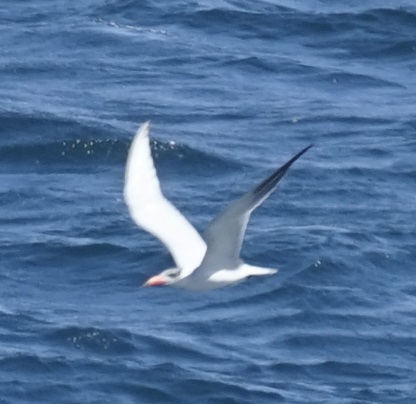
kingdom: Animalia
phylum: Chordata
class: Aves
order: Charadriiformes
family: Laridae
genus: Hydroprogne
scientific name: Hydroprogne caspia
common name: Caspian tern
